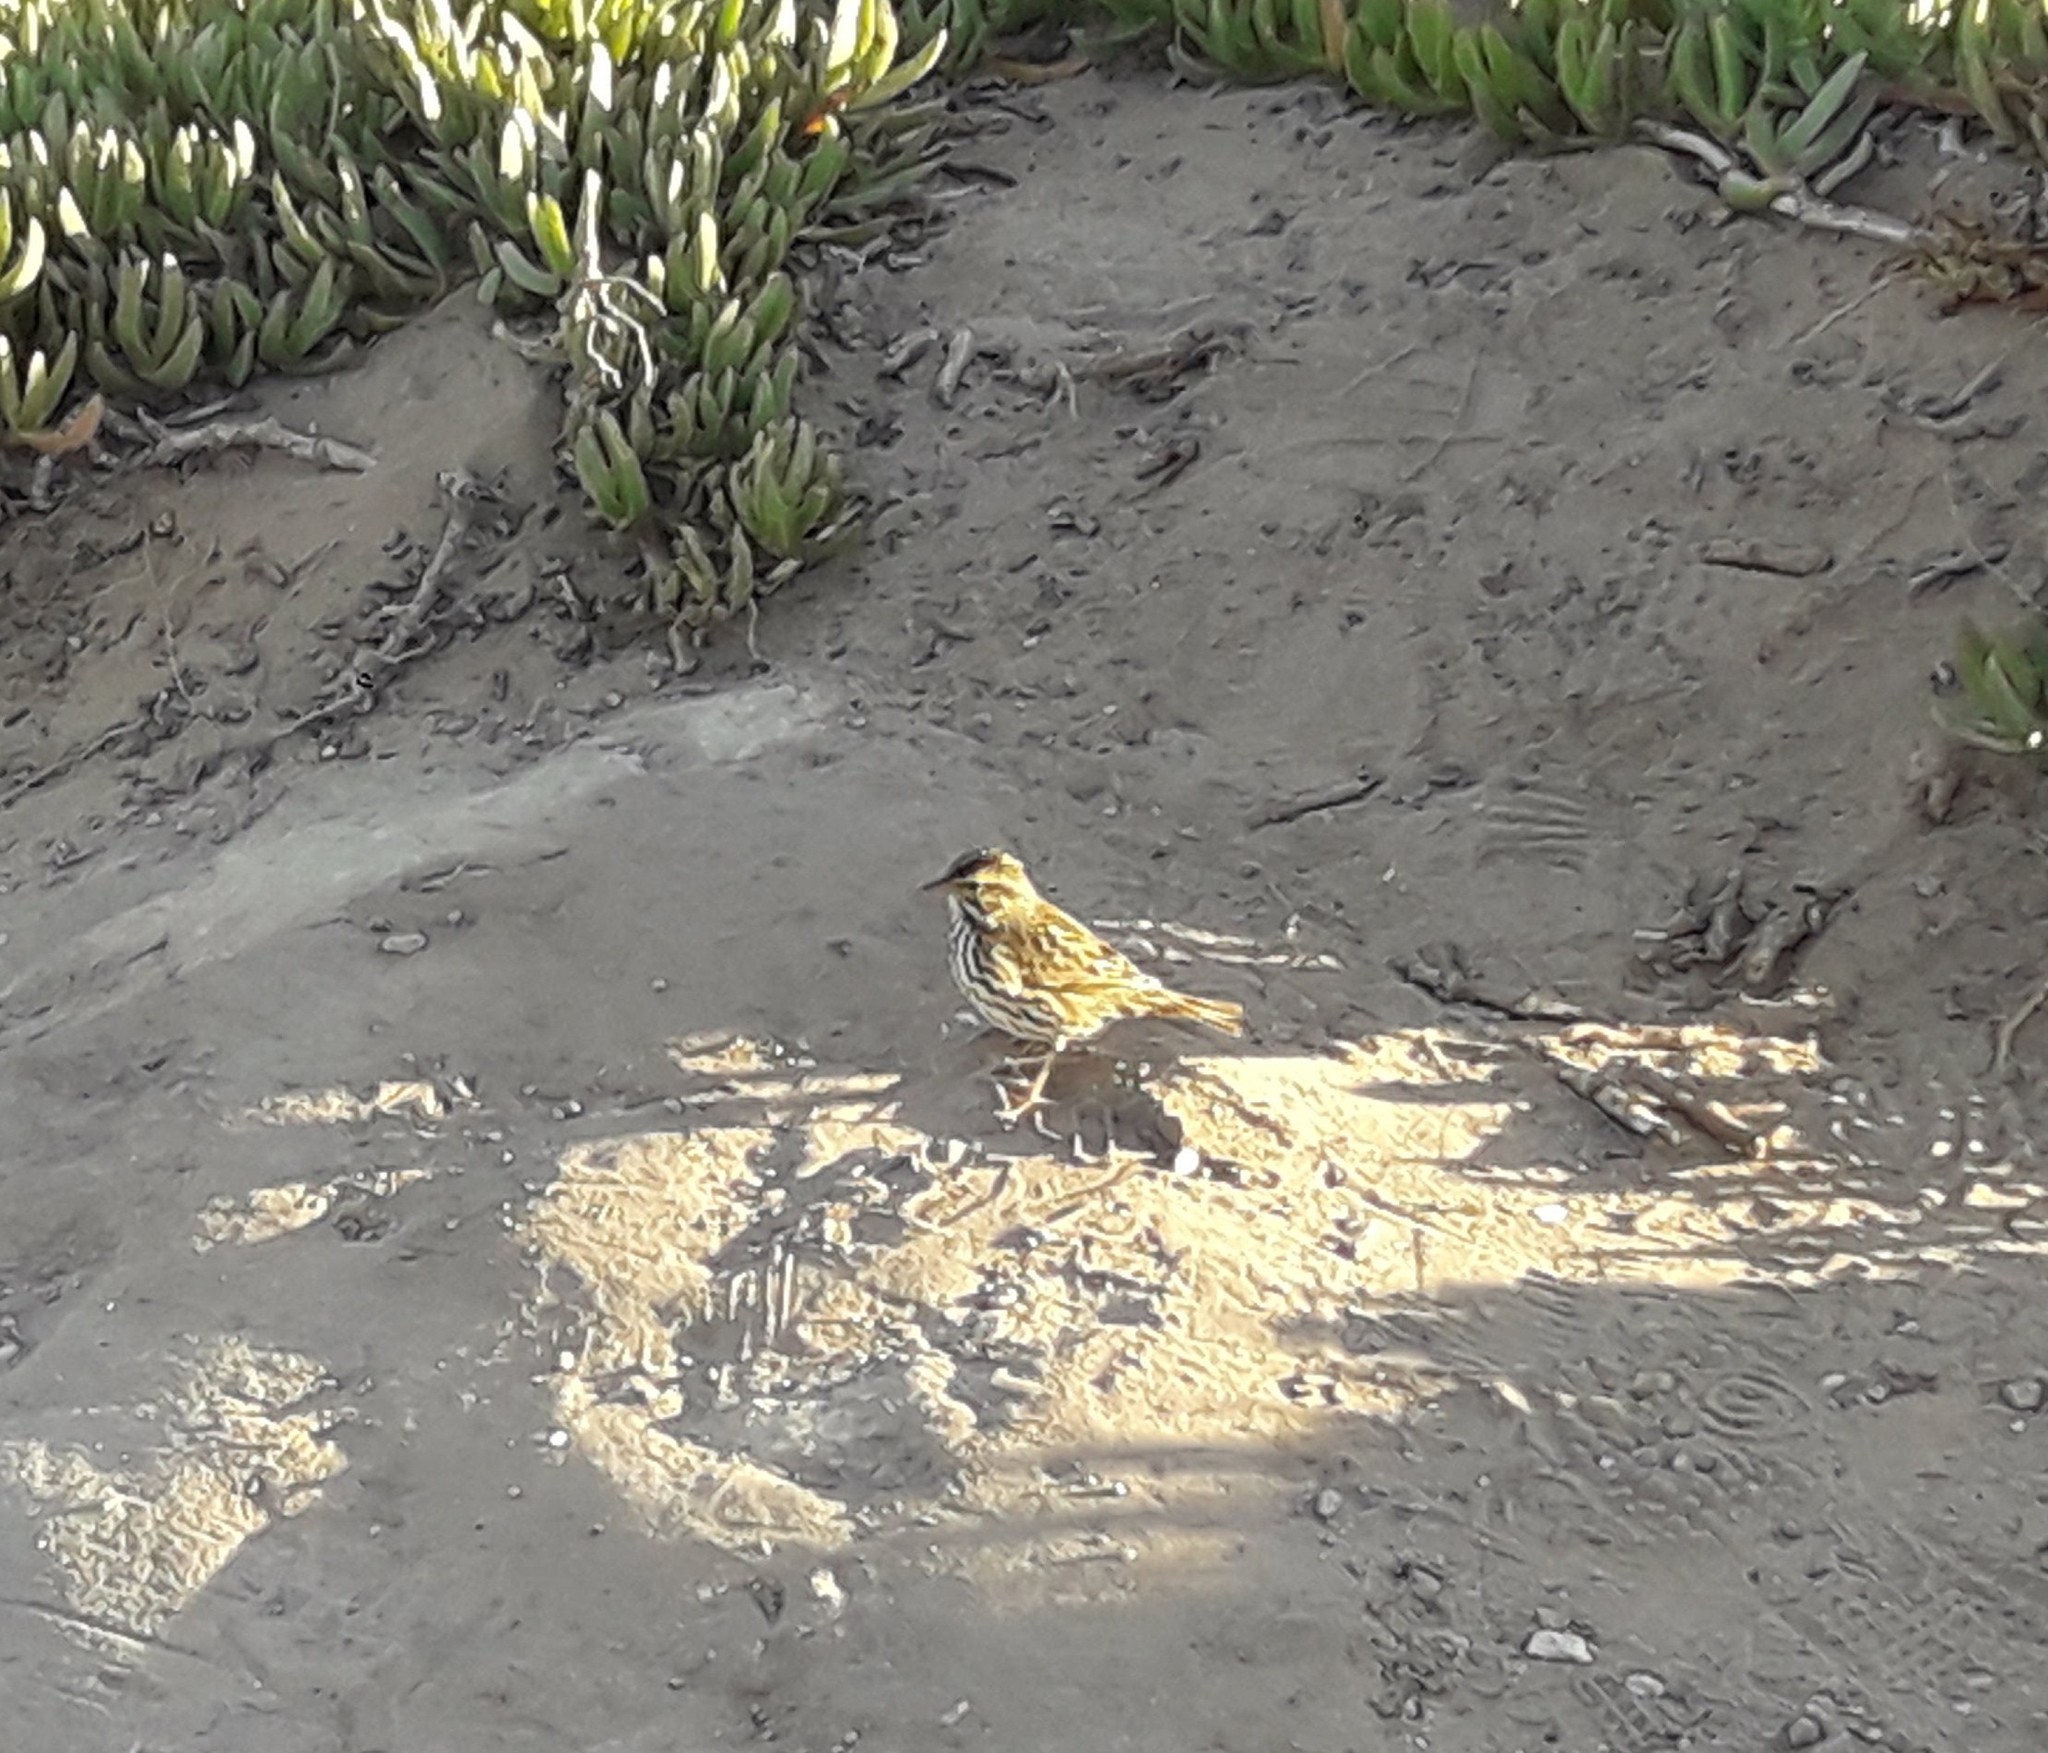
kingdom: Animalia
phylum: Chordata
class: Aves
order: Passeriformes
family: Passerellidae
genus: Passerculus
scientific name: Passerculus sandwichensis
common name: Savannah sparrow
